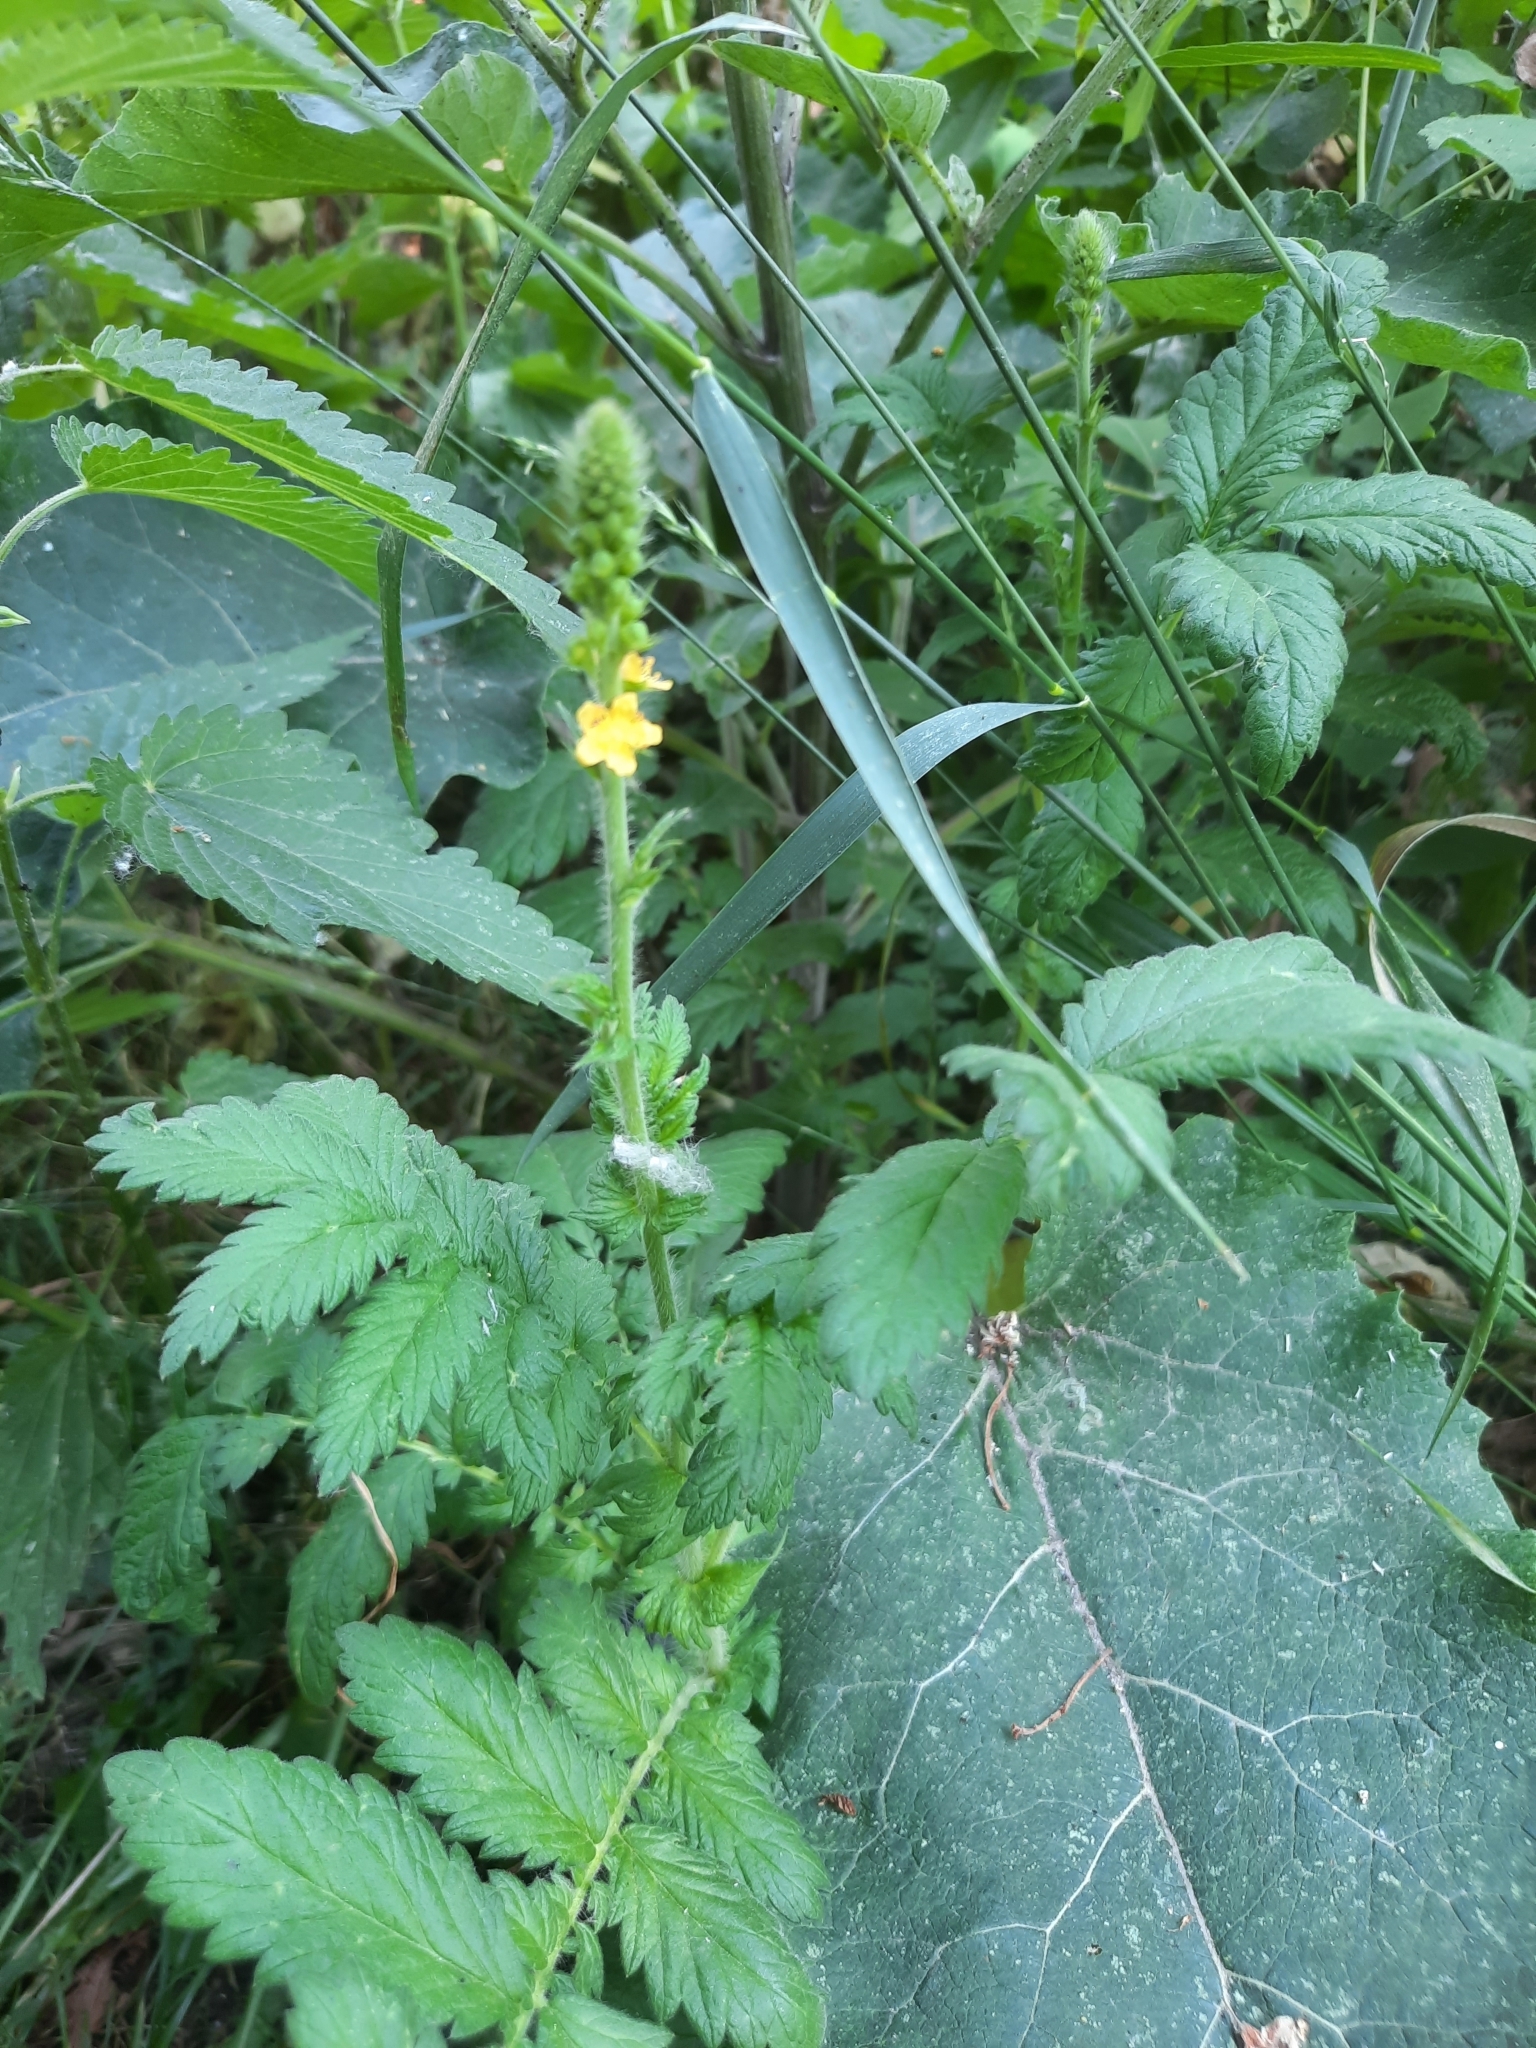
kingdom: Plantae
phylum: Tracheophyta
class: Magnoliopsida
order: Rosales
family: Rosaceae
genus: Agrimonia
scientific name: Agrimonia eupatoria
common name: Agrimony
